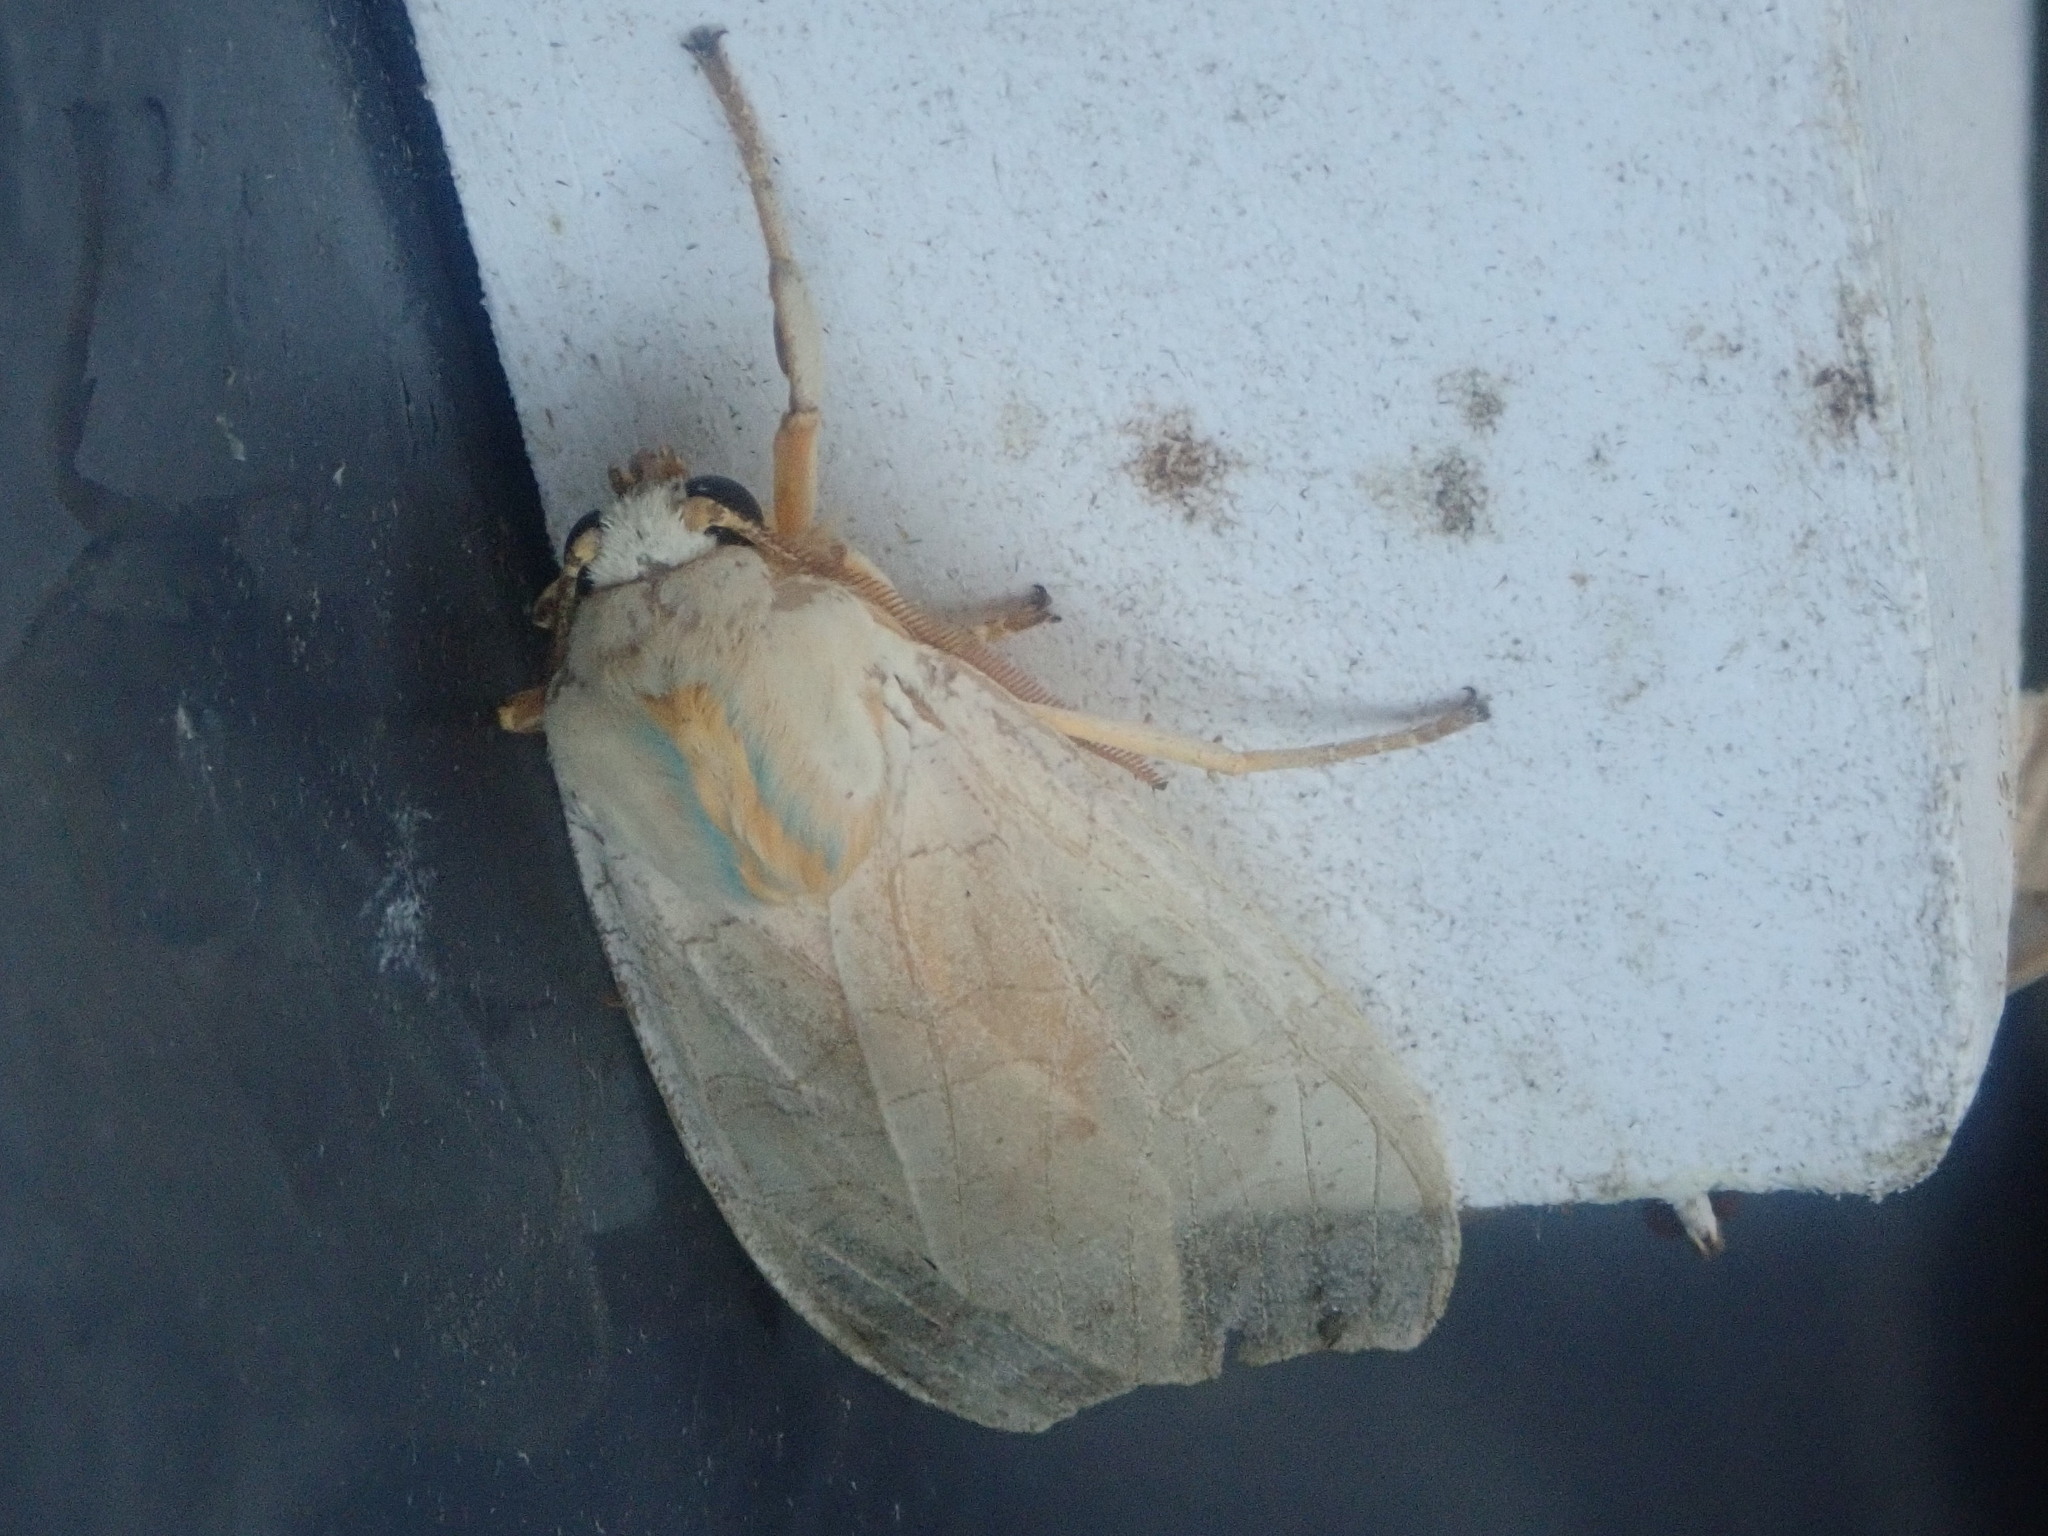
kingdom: Animalia
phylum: Arthropoda
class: Insecta
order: Lepidoptera
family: Erebidae
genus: Halysidota
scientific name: Halysidota
